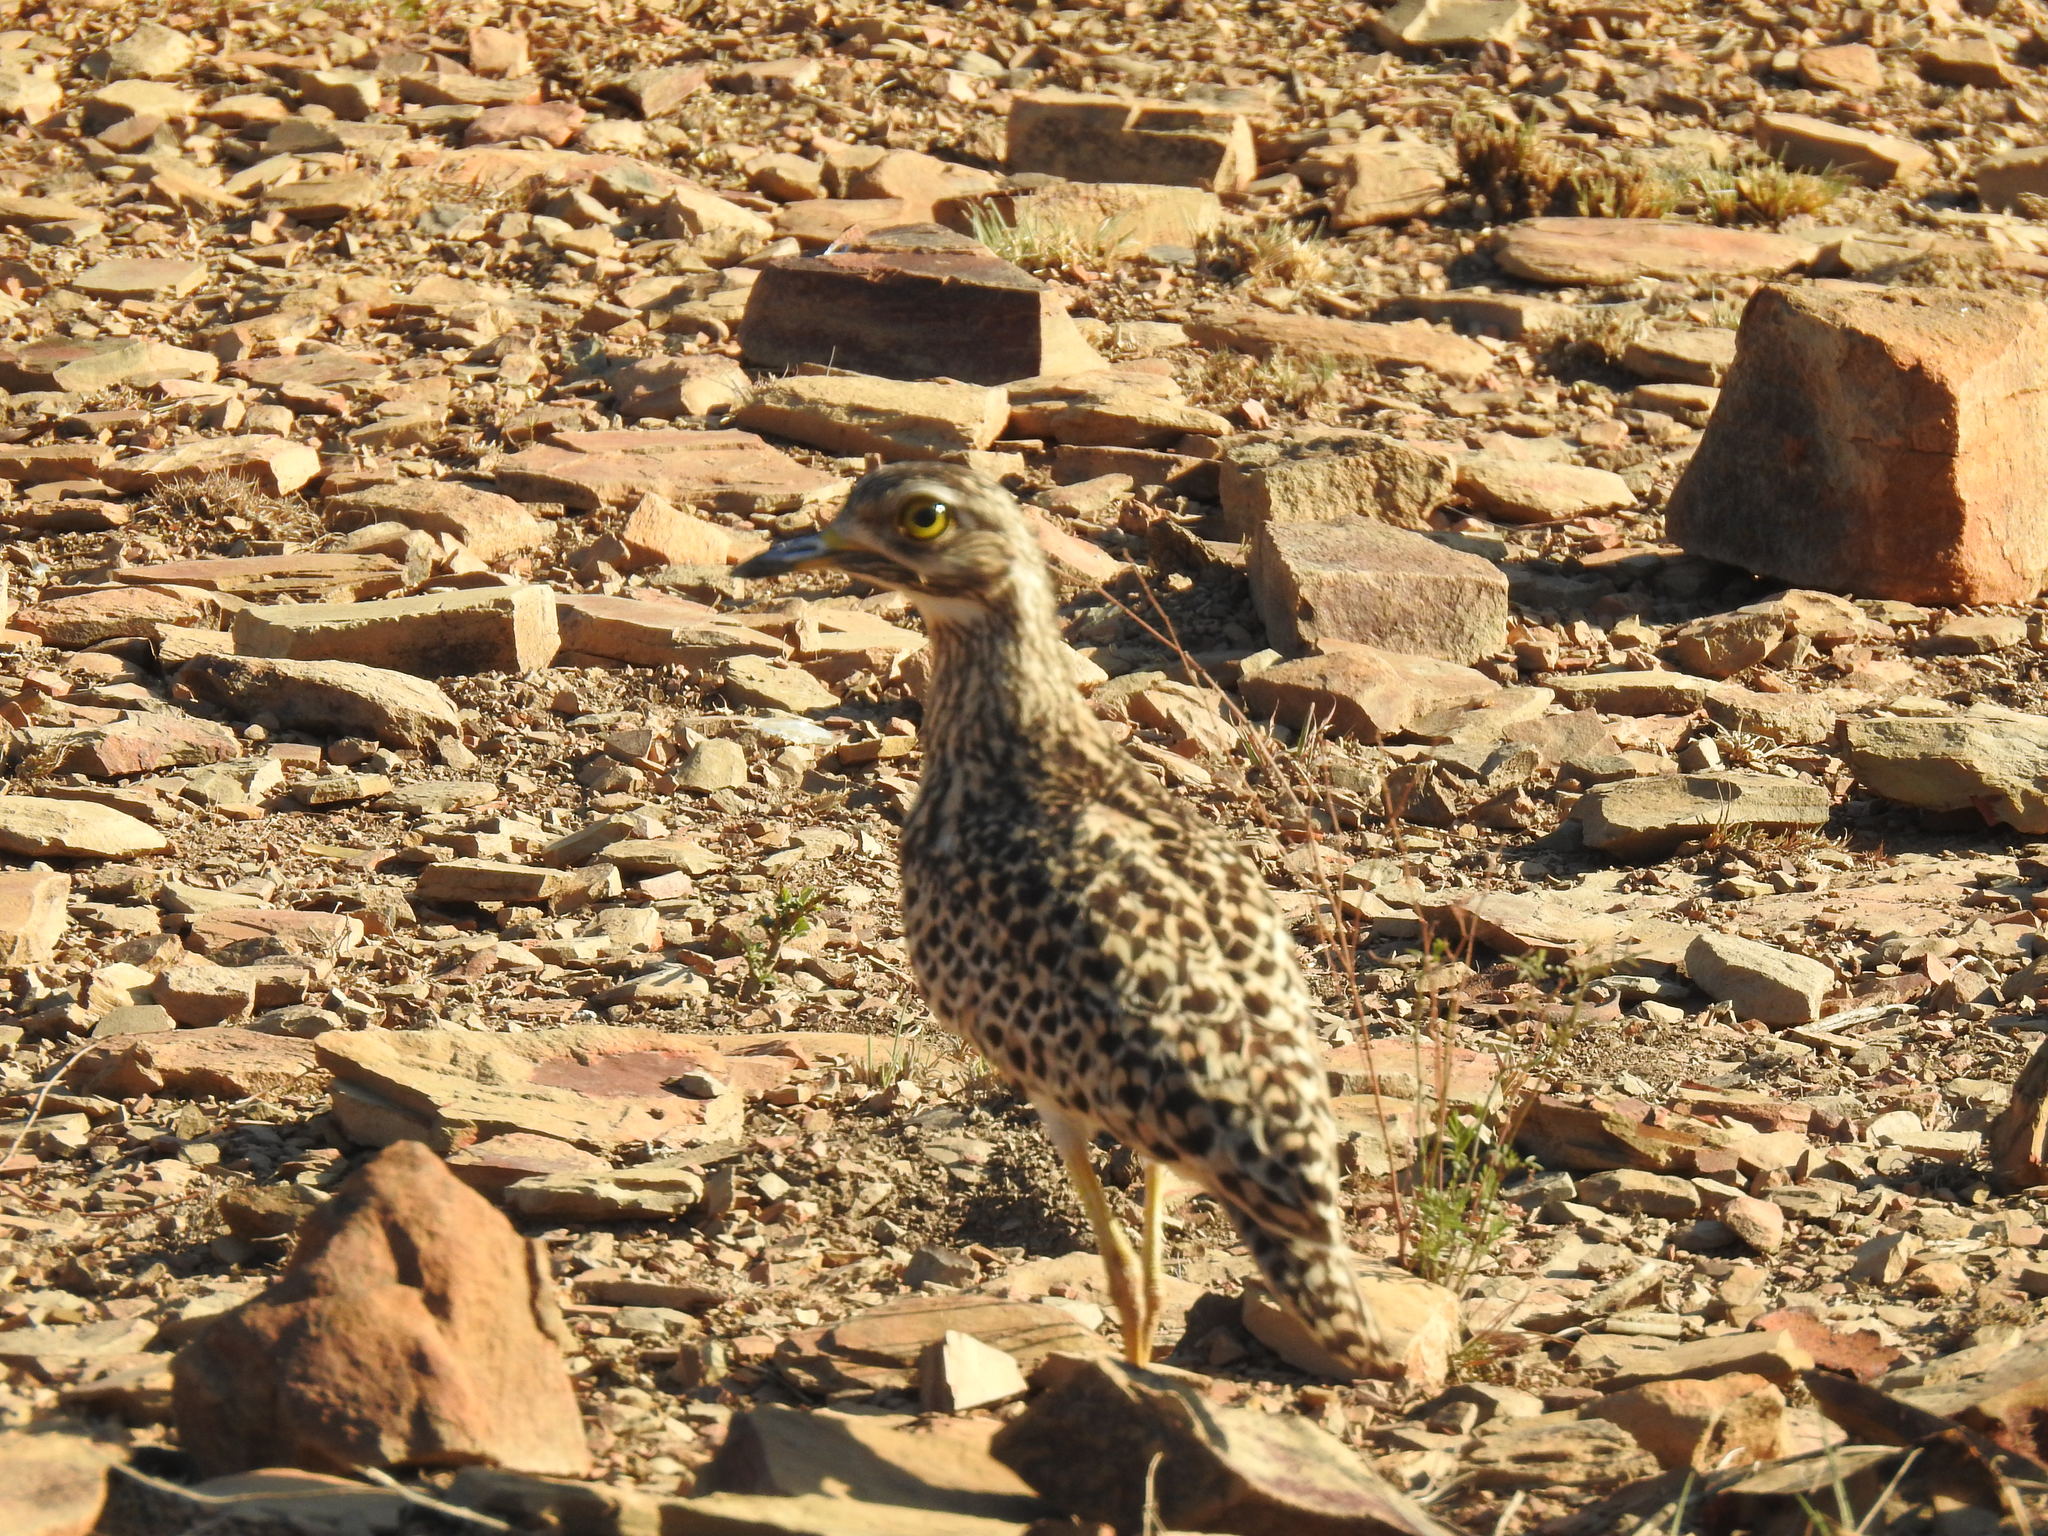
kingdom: Animalia
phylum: Chordata
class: Aves
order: Charadriiformes
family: Burhinidae
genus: Burhinus
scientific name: Burhinus capensis
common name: Spotted thick-knee
